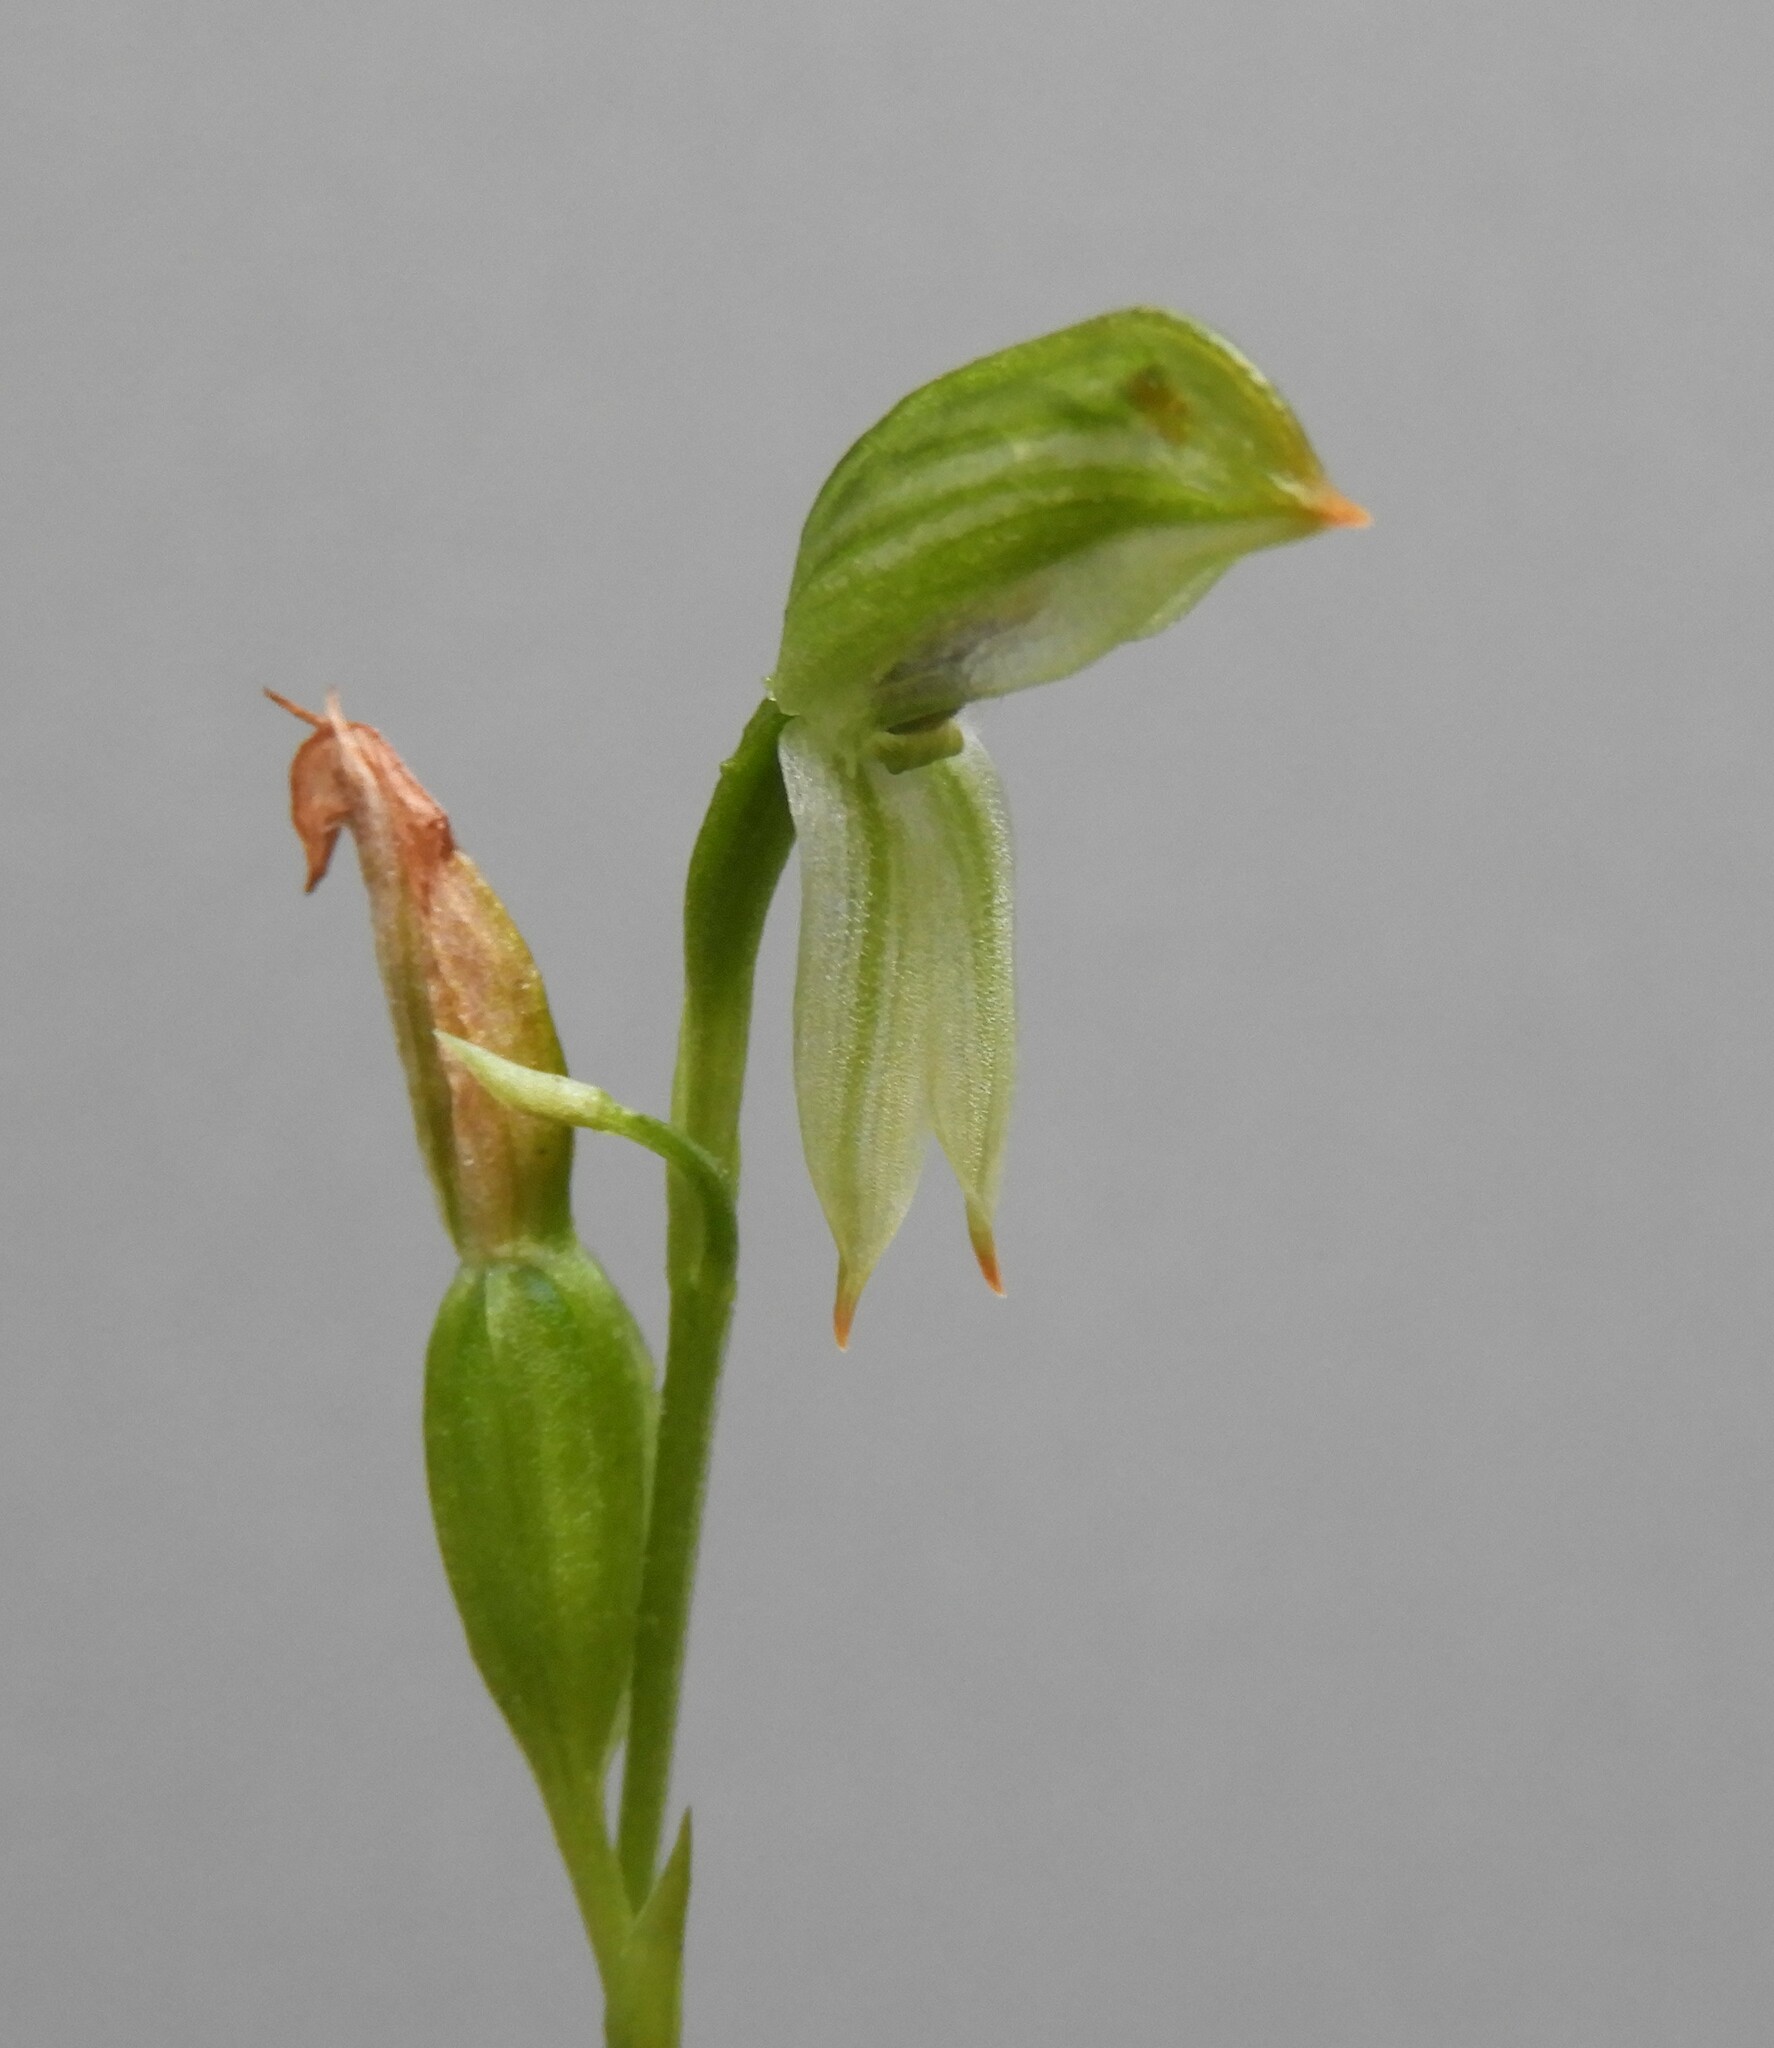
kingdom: Plantae
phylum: Tracheophyta
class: Liliopsida
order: Asparagales
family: Orchidaceae
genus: Pterostylis
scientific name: Pterostylis longifolia
